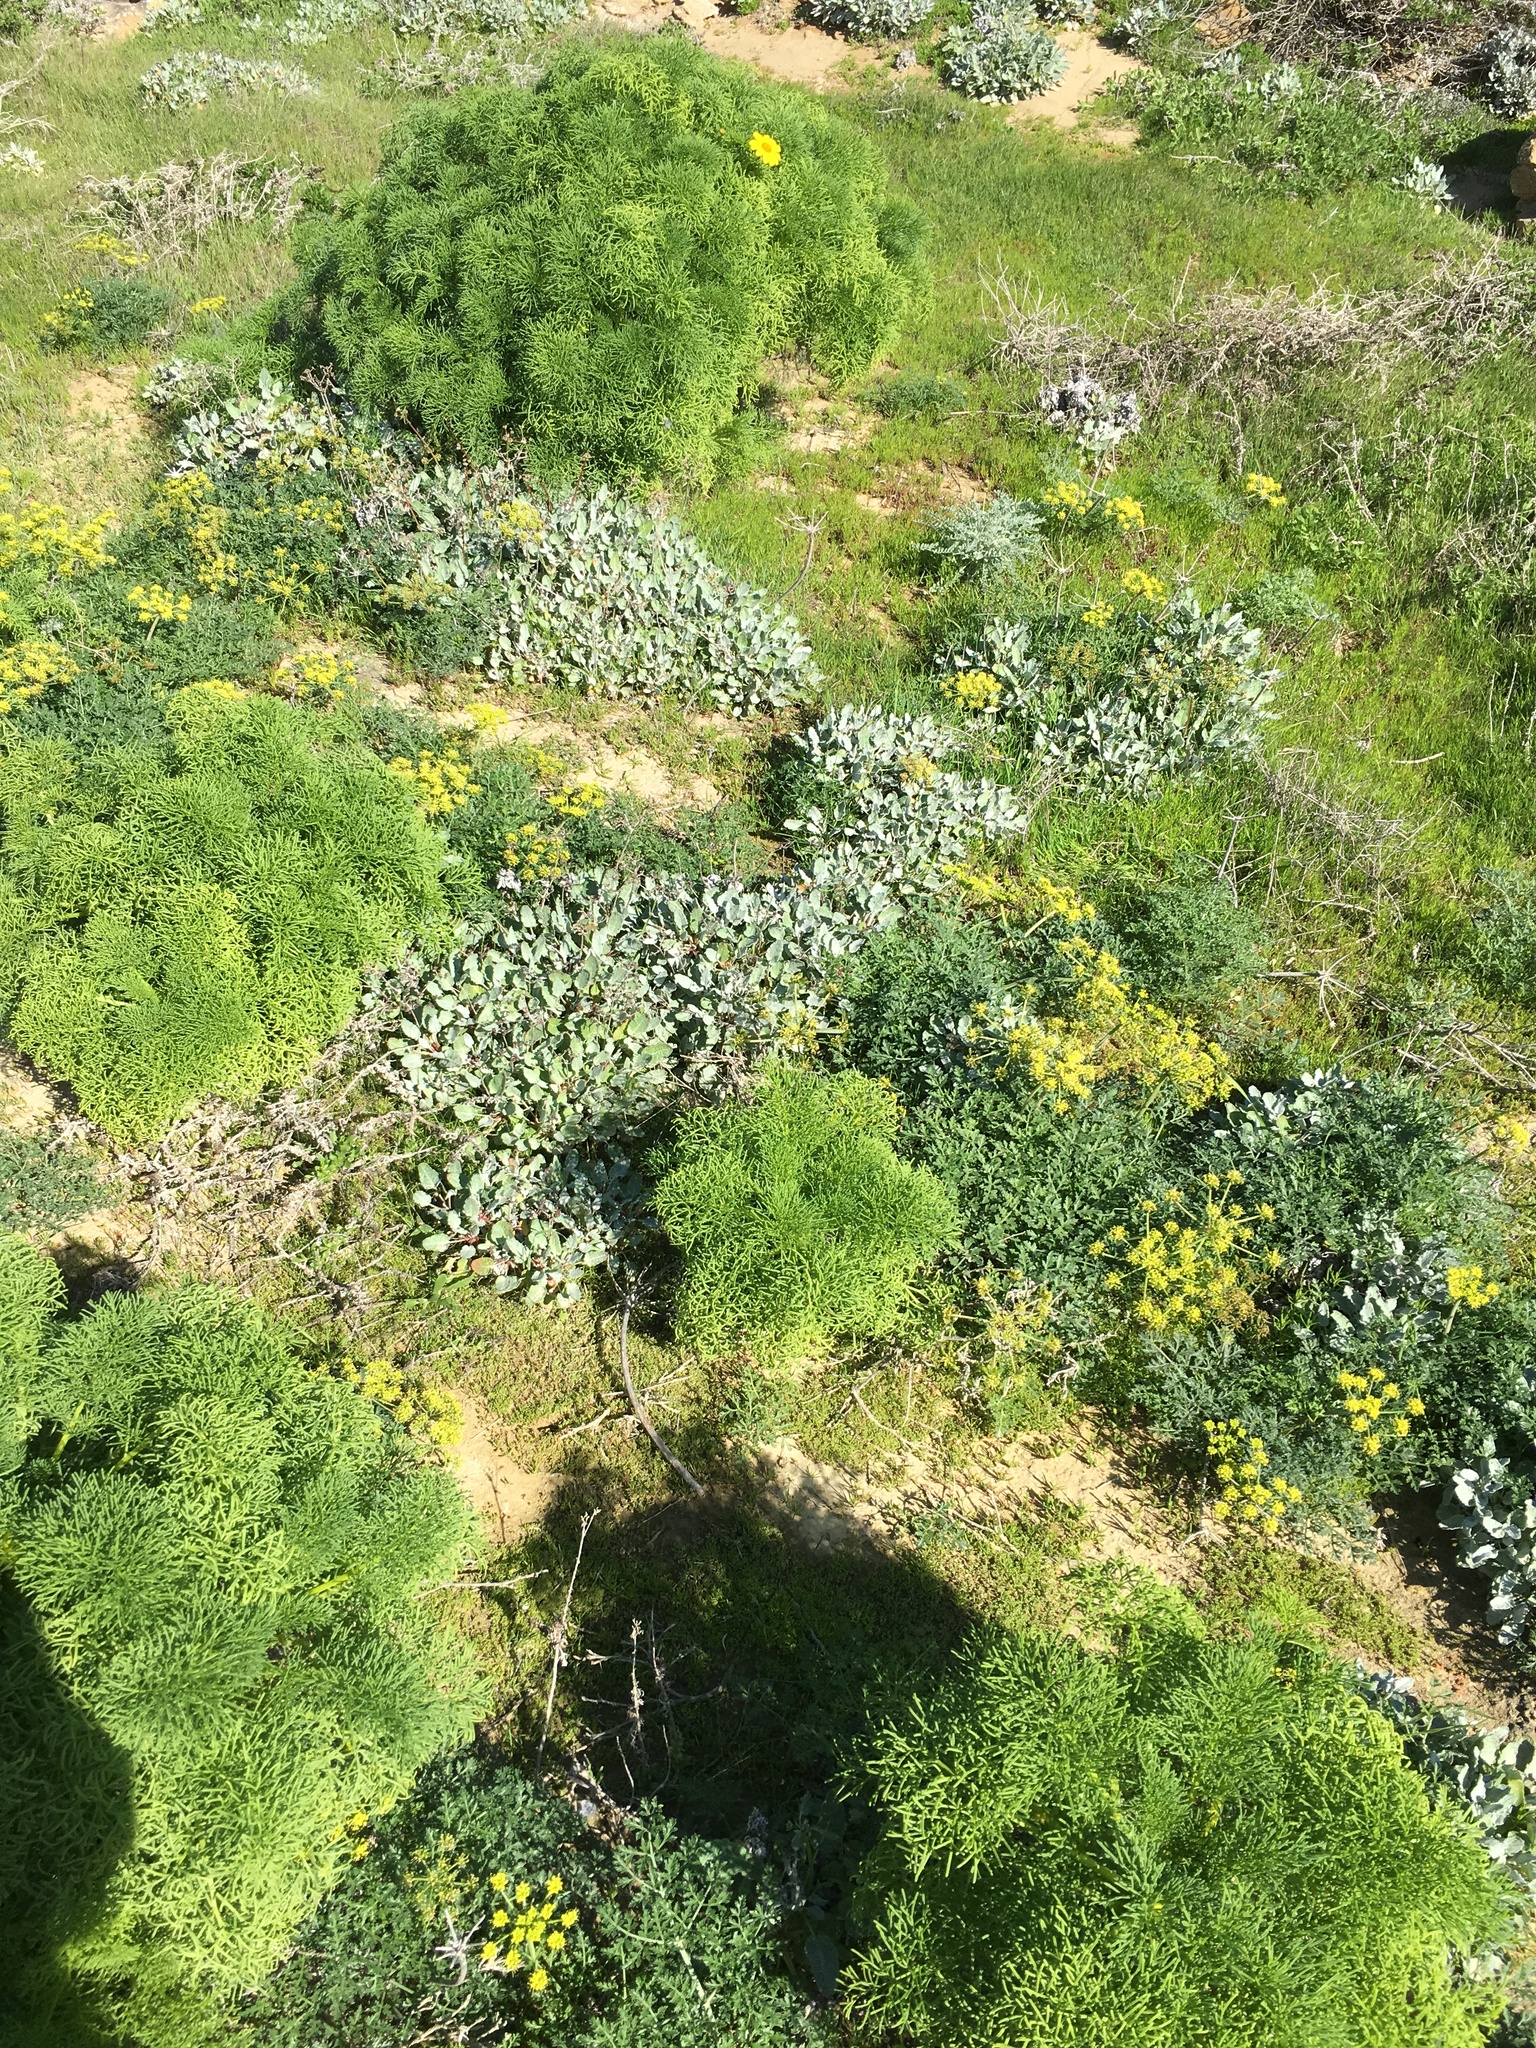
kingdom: Plantae
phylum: Tracheophyta
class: Magnoliopsida
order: Asterales
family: Asteraceae
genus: Coreopsis
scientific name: Coreopsis gigantea
